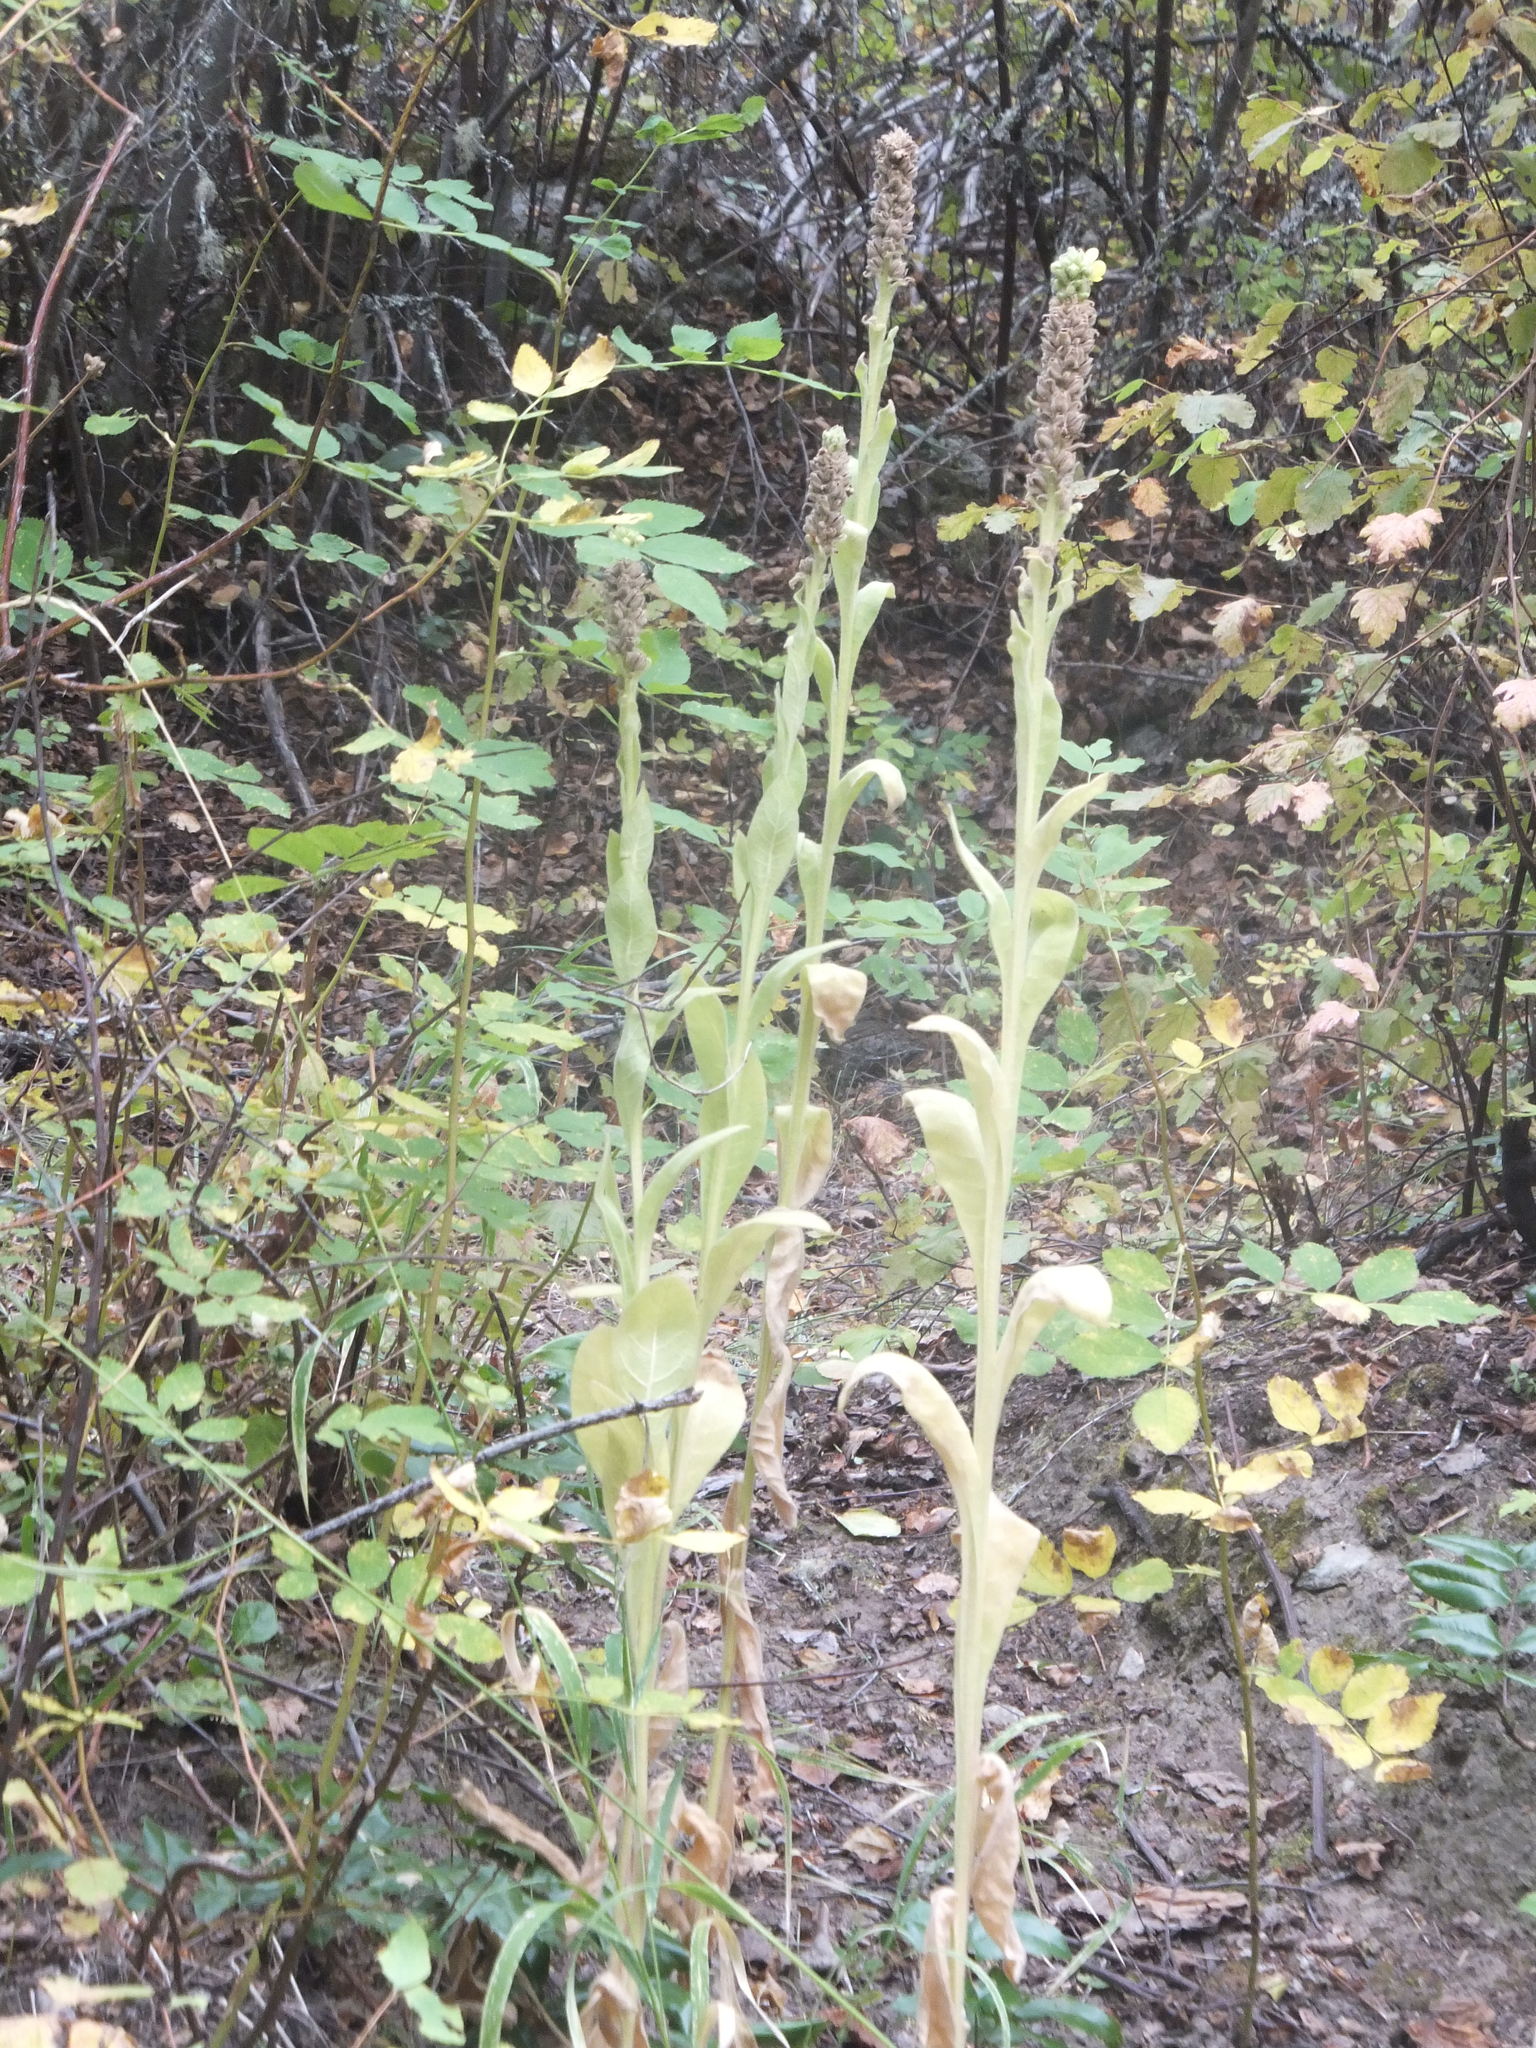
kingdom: Plantae
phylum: Tracheophyta
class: Magnoliopsida
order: Lamiales
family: Scrophulariaceae
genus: Verbascum
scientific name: Verbascum thapsus
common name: Common mullein
